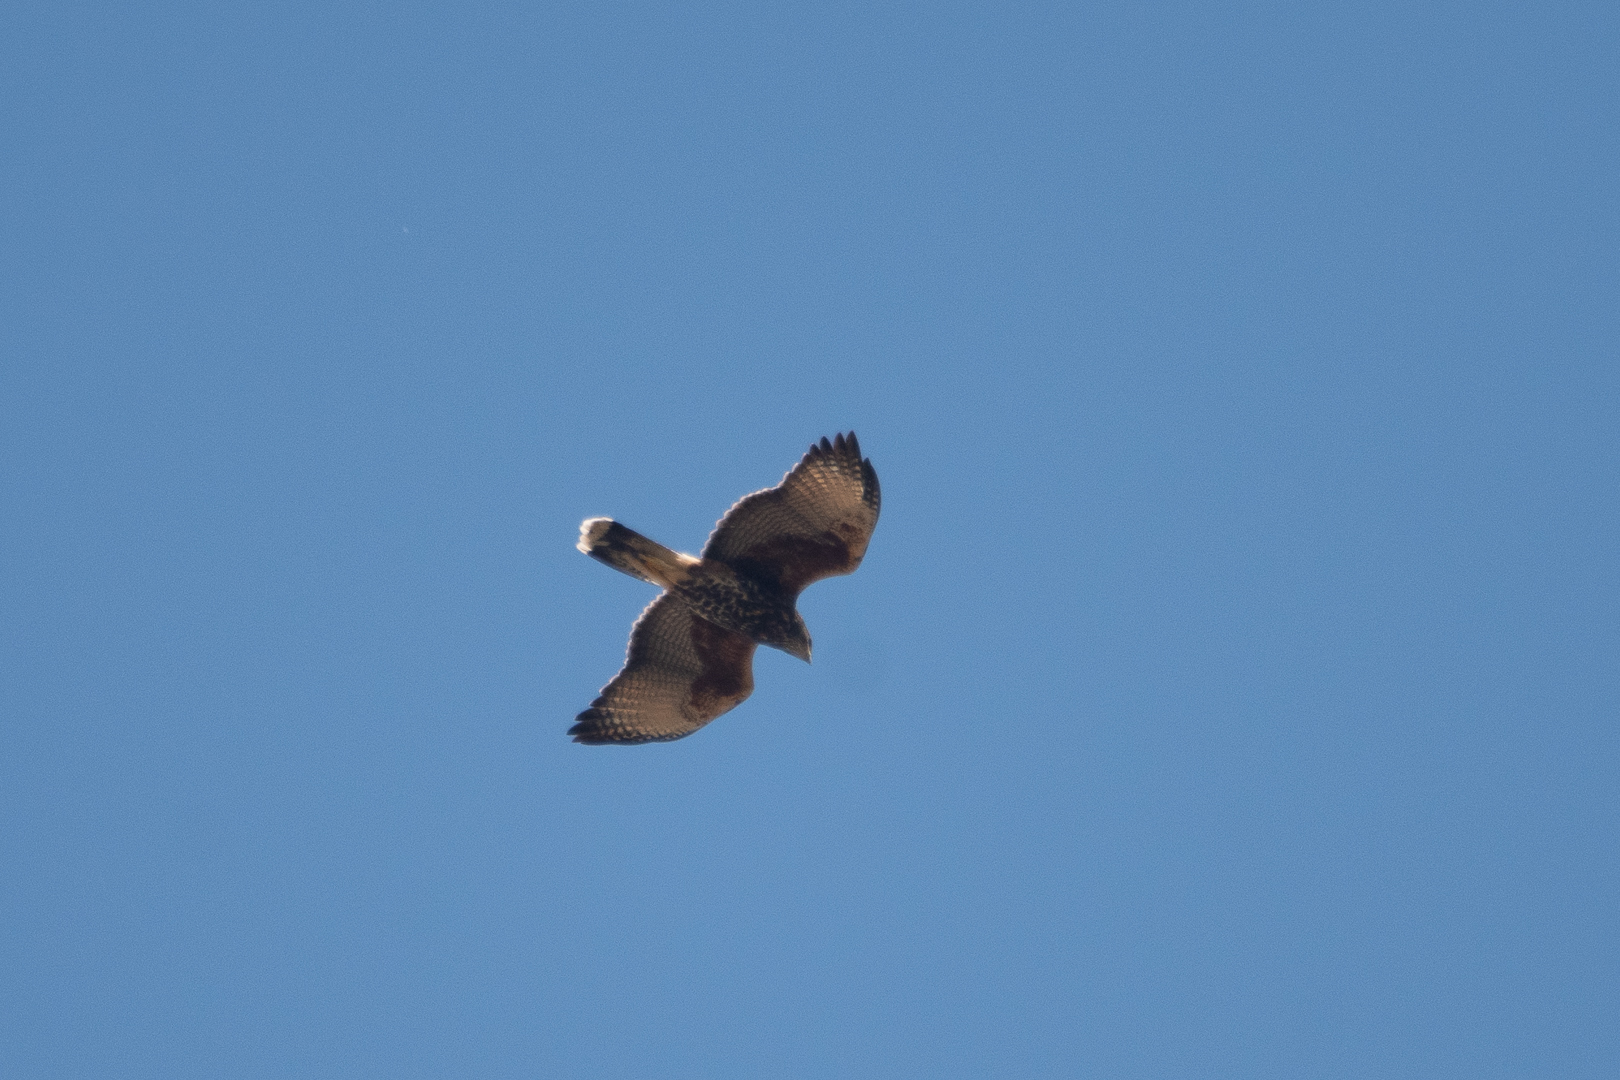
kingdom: Animalia
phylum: Chordata
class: Aves
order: Accipitriformes
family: Accipitridae
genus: Parabuteo
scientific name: Parabuteo unicinctus
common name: Harris's hawk
